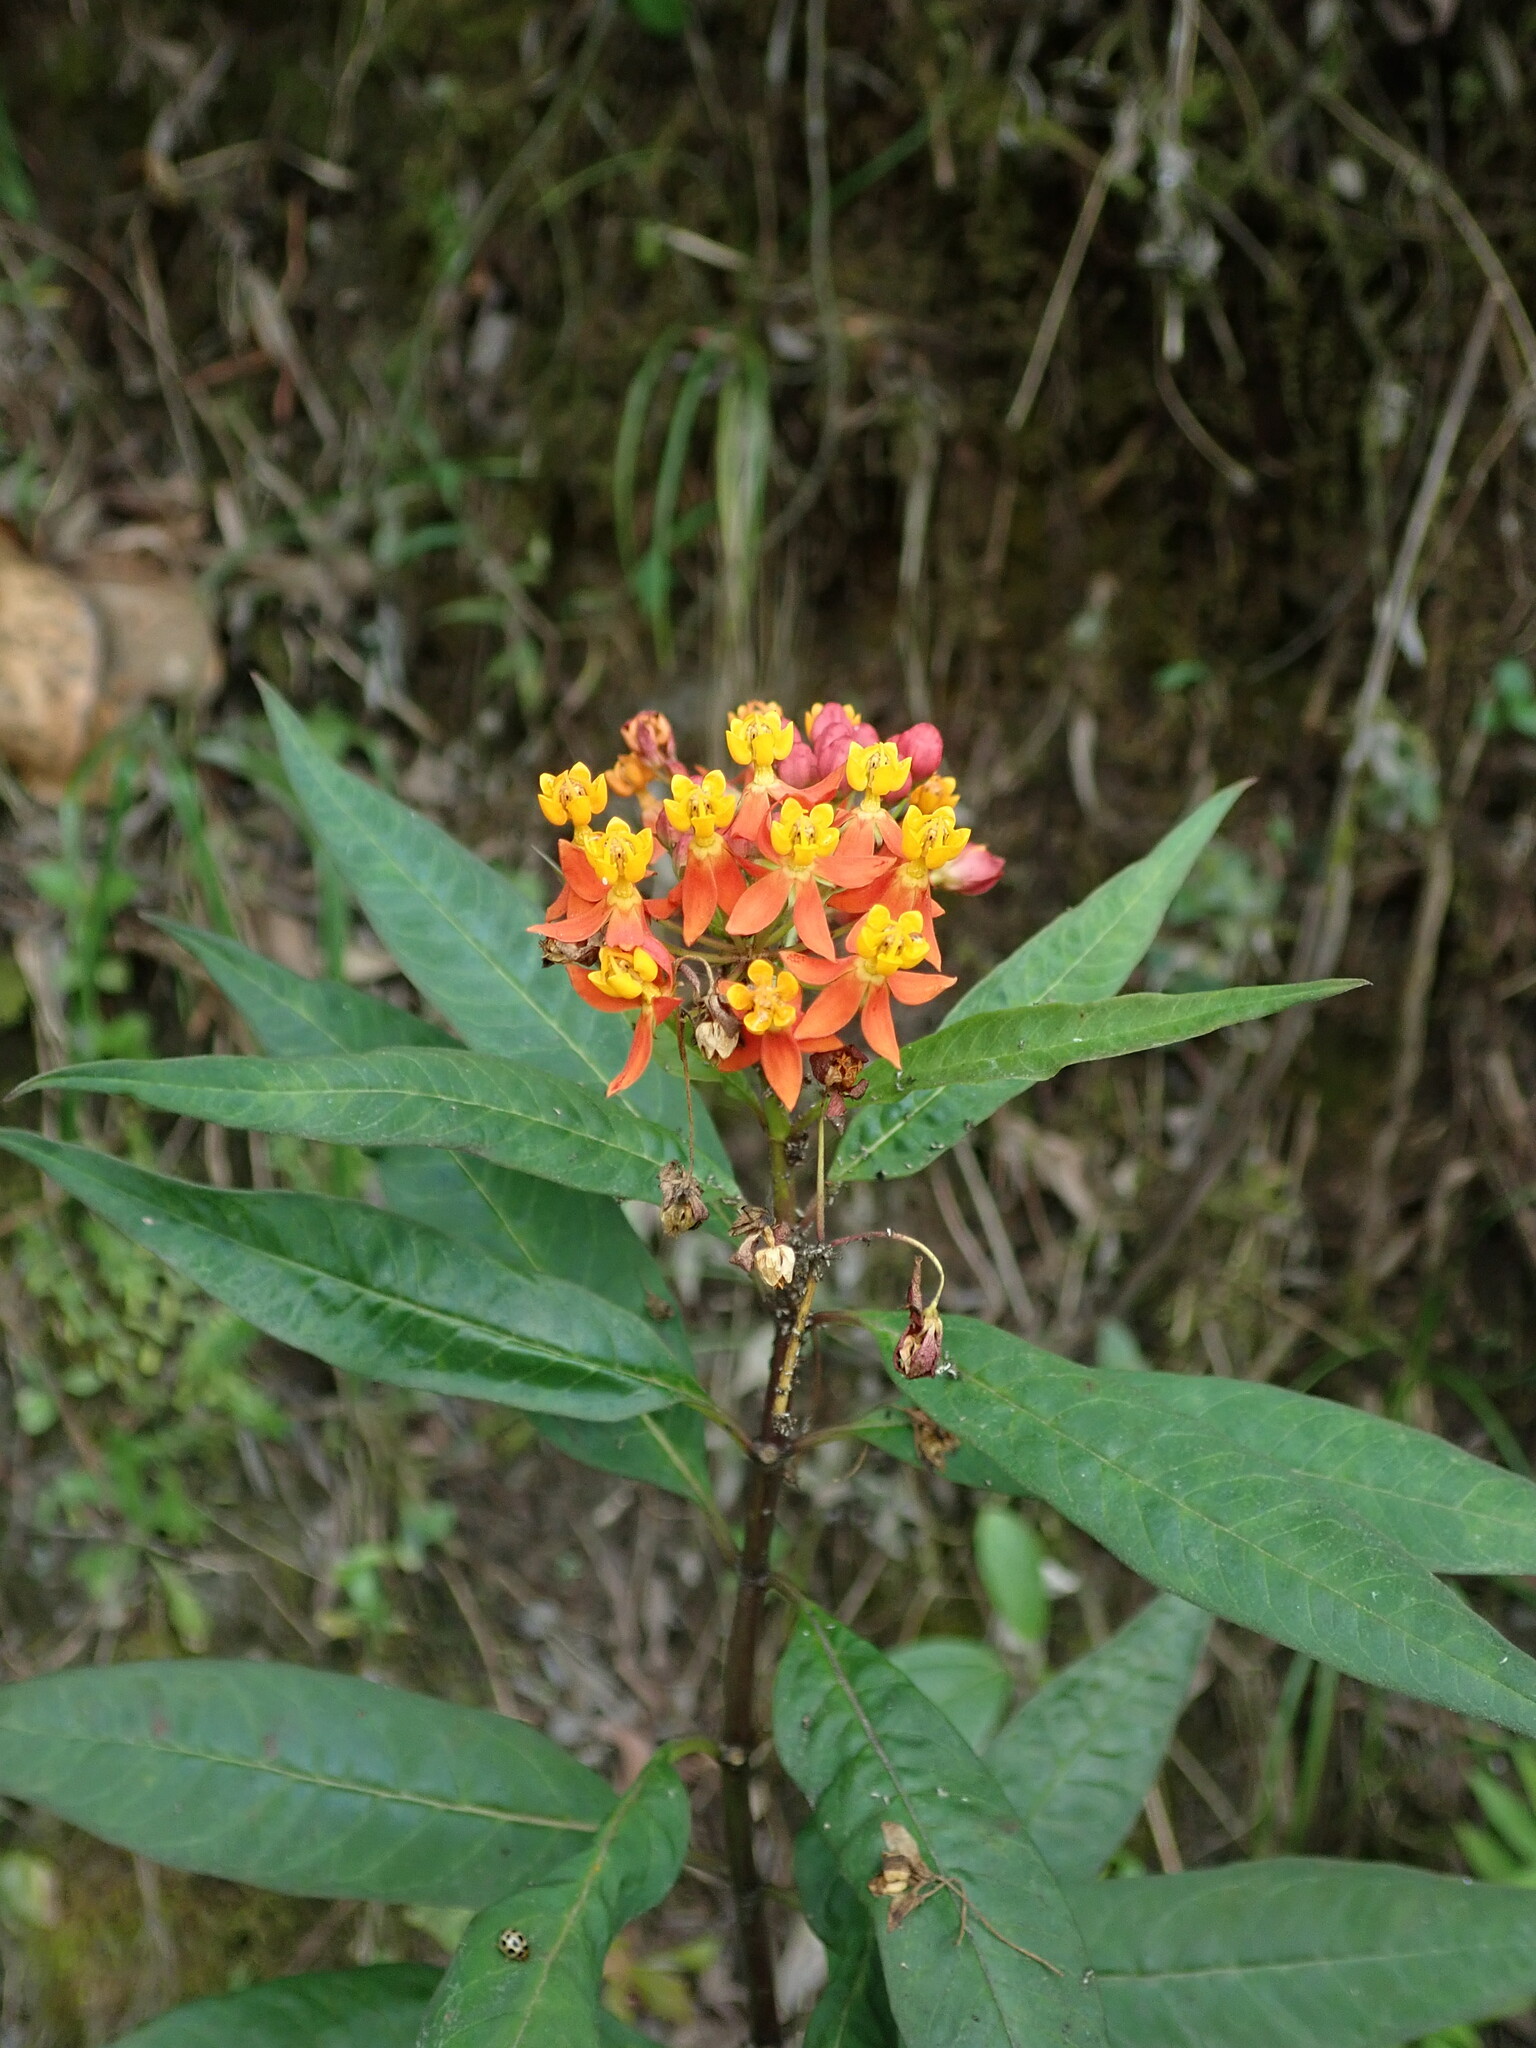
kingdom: Plantae
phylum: Tracheophyta
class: Magnoliopsida
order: Gentianales
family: Apocynaceae
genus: Asclepias
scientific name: Asclepias curassavica
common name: Bloodflower
